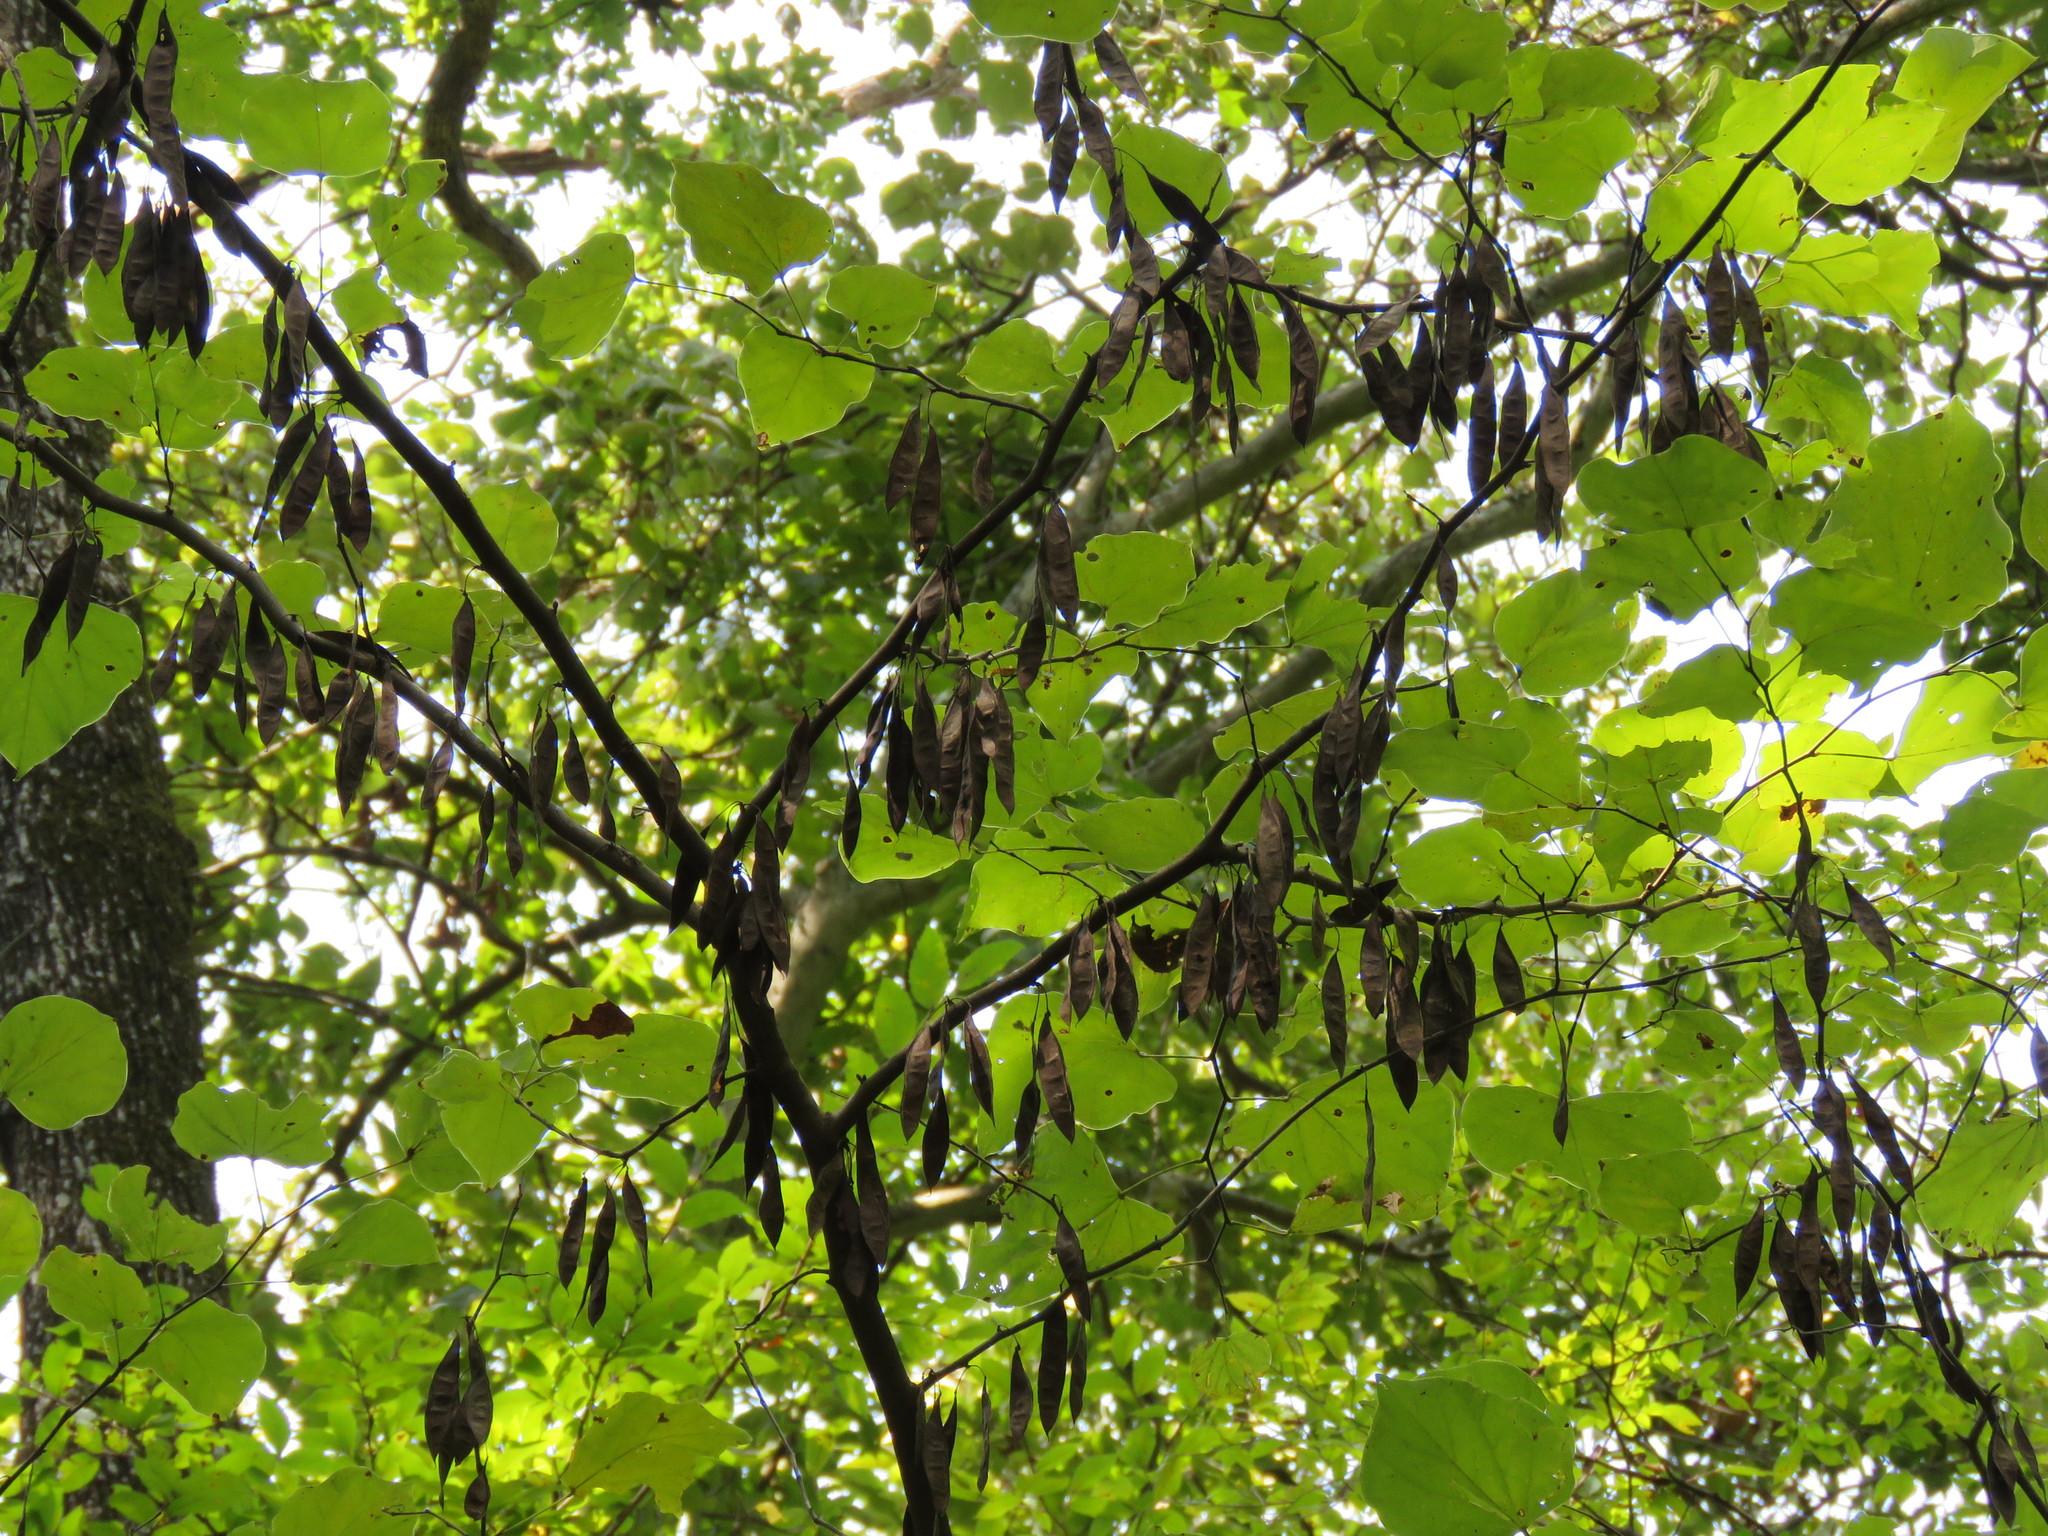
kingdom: Plantae
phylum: Tracheophyta
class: Magnoliopsida
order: Fabales
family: Fabaceae
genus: Cercis
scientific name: Cercis canadensis
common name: Eastern redbud
